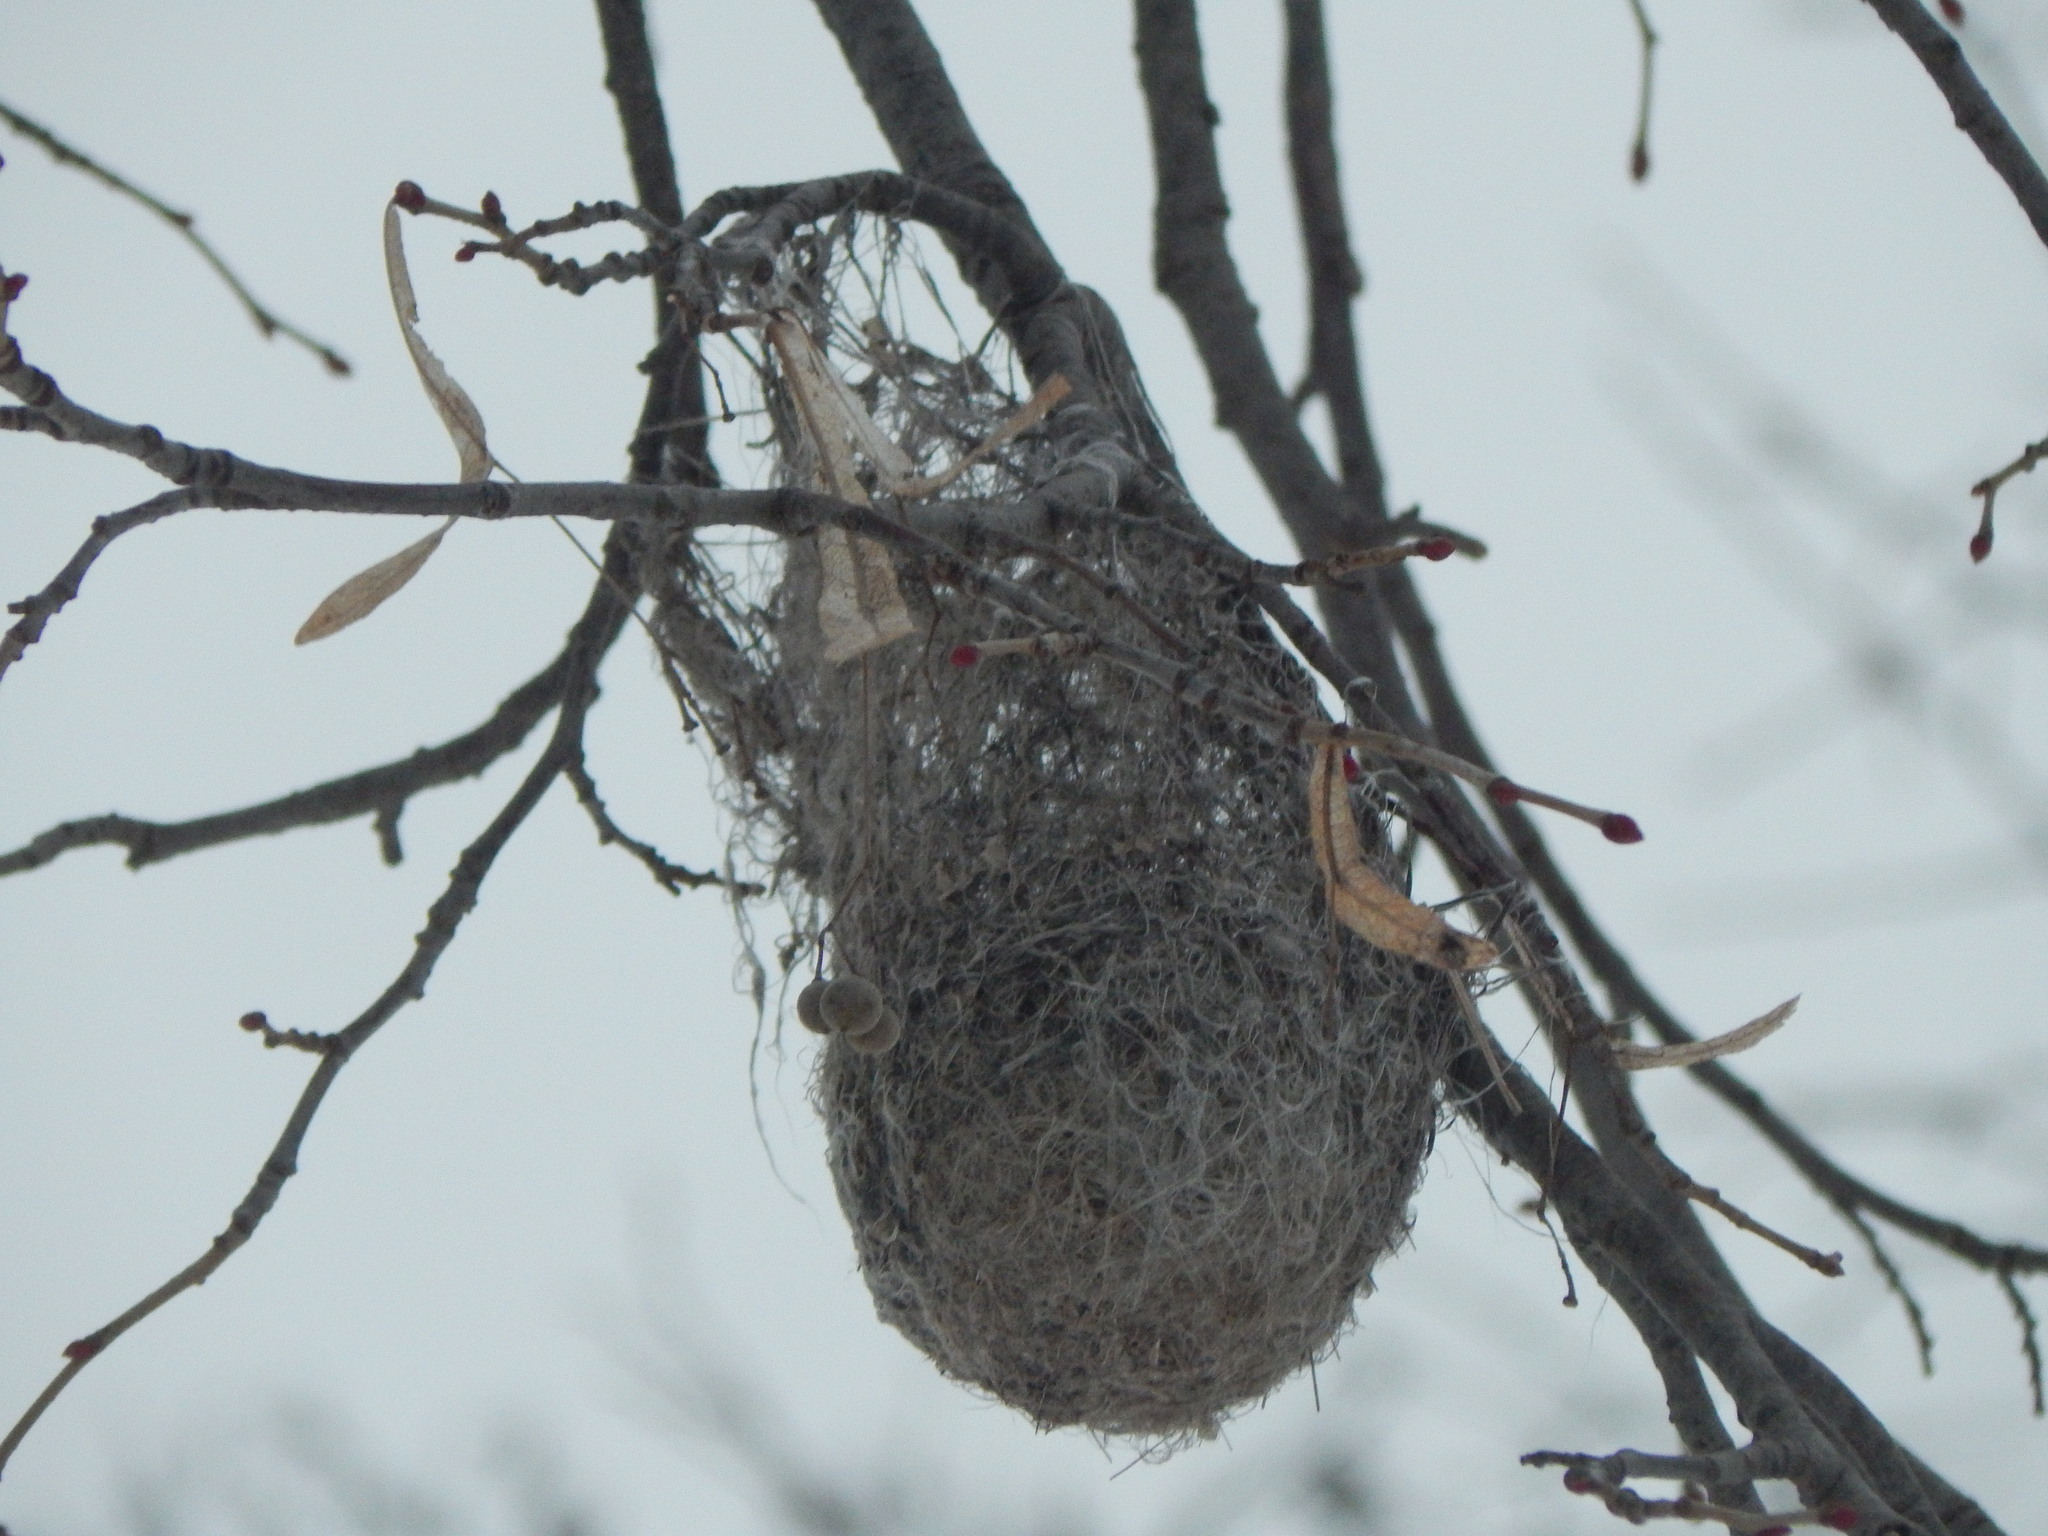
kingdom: Animalia
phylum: Chordata
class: Aves
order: Passeriformes
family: Icteridae
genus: Icterus
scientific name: Icterus galbula
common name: Baltimore oriole
